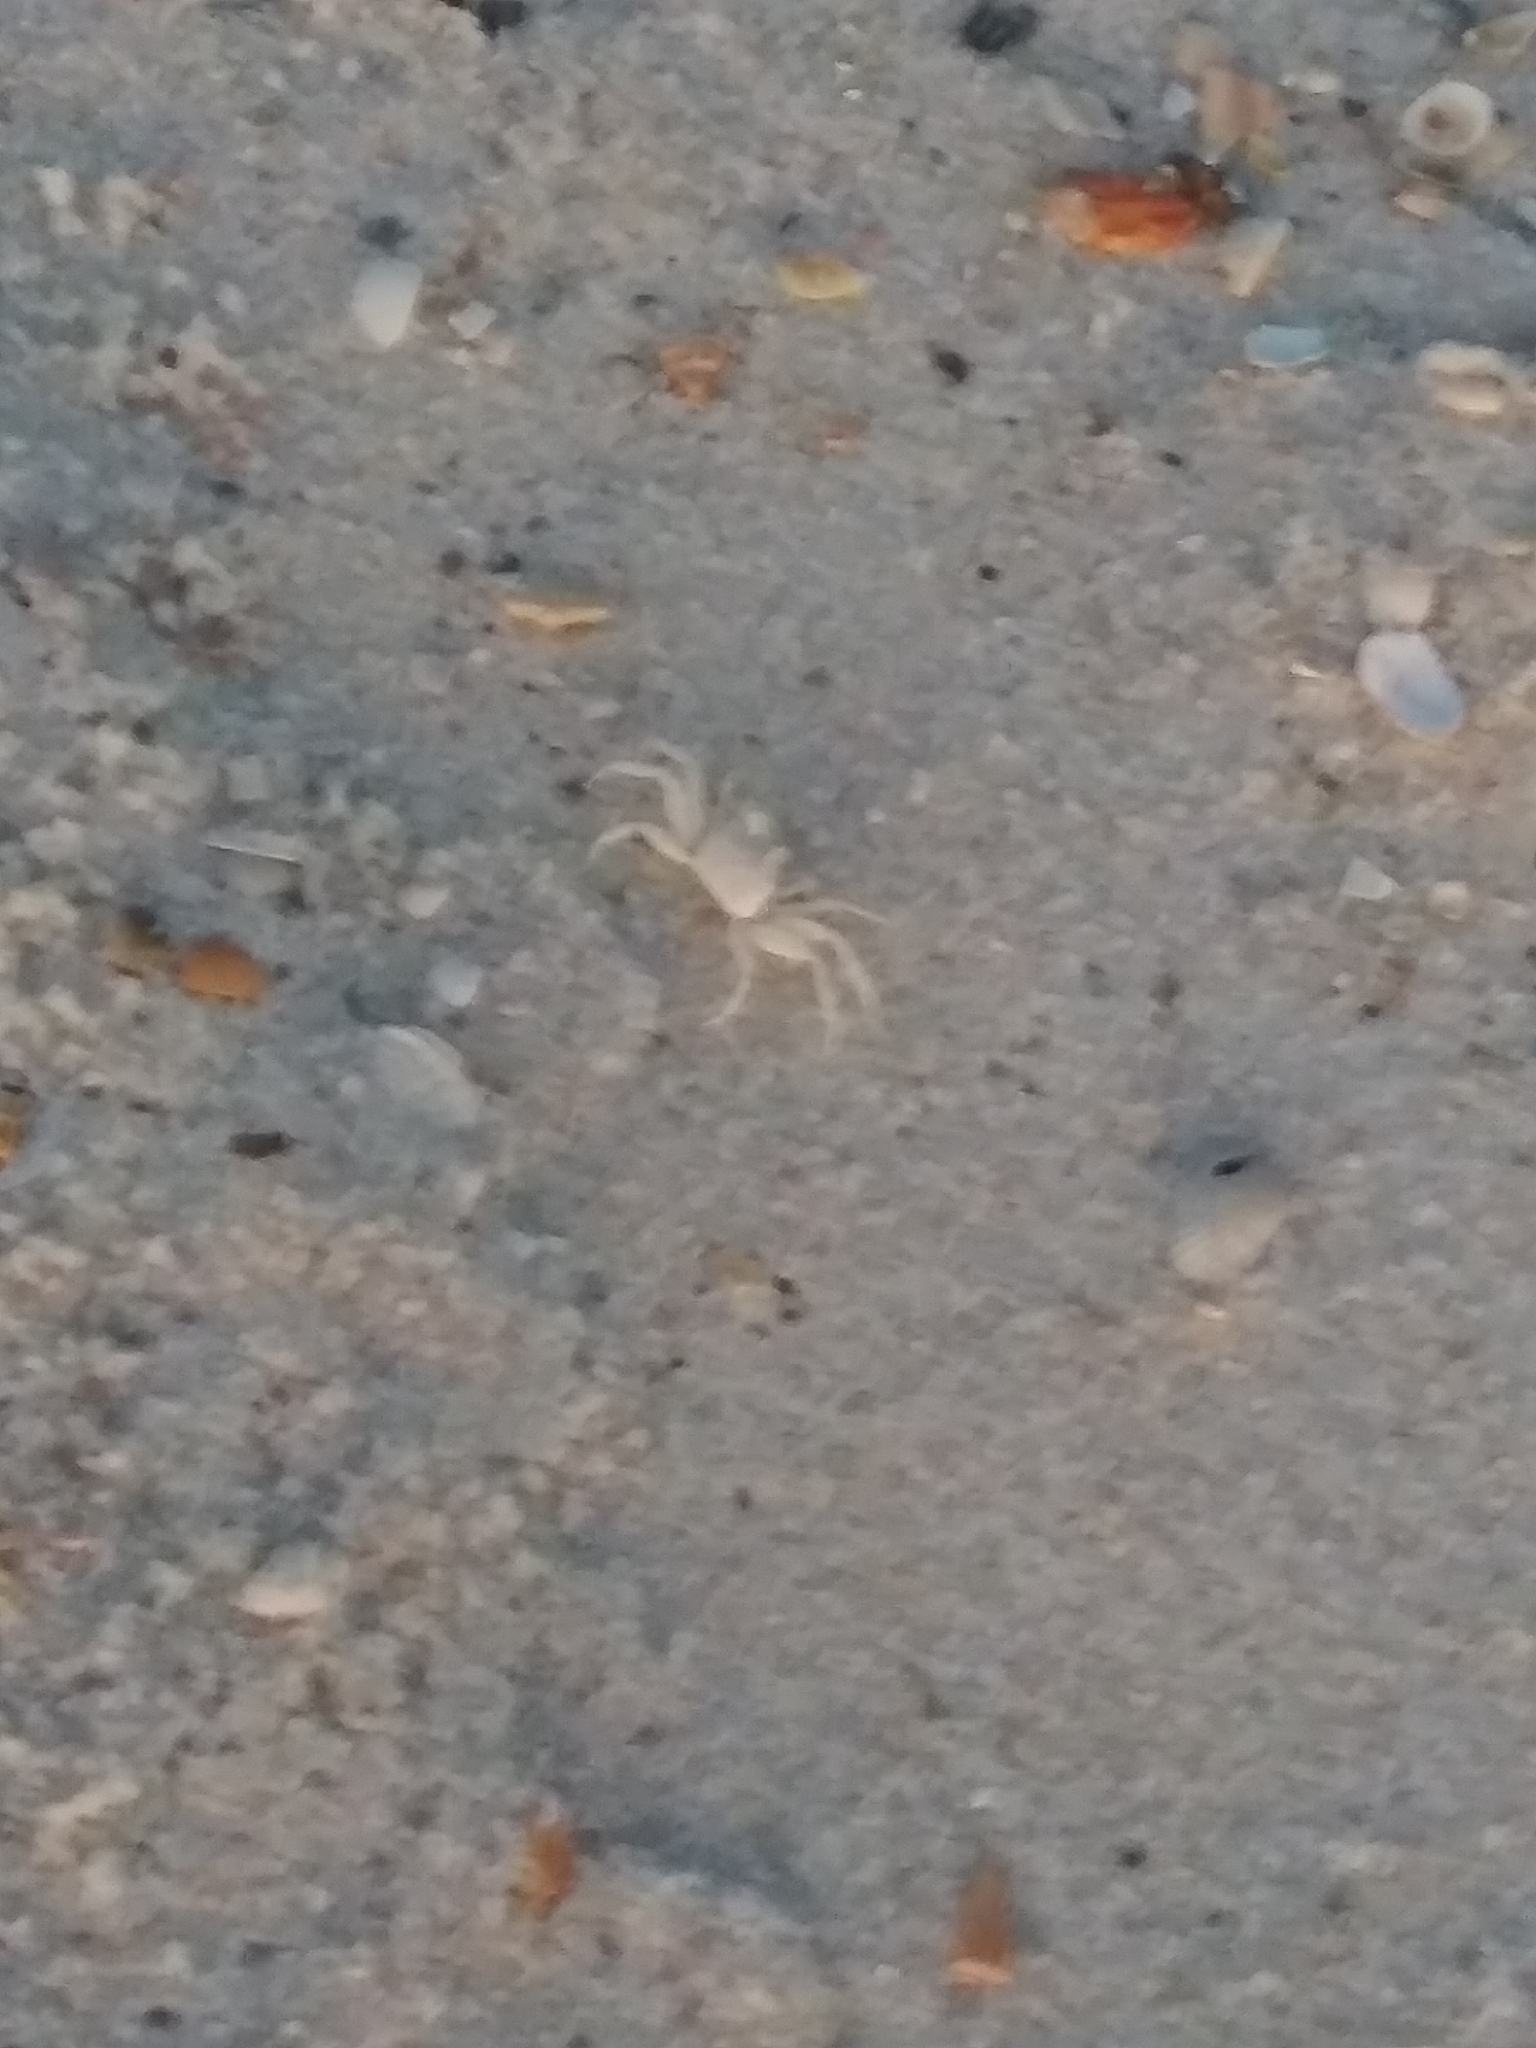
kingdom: Animalia
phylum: Arthropoda
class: Malacostraca
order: Decapoda
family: Ocypodidae
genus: Ocypode
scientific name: Ocypode quadrata
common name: Ghost crab
